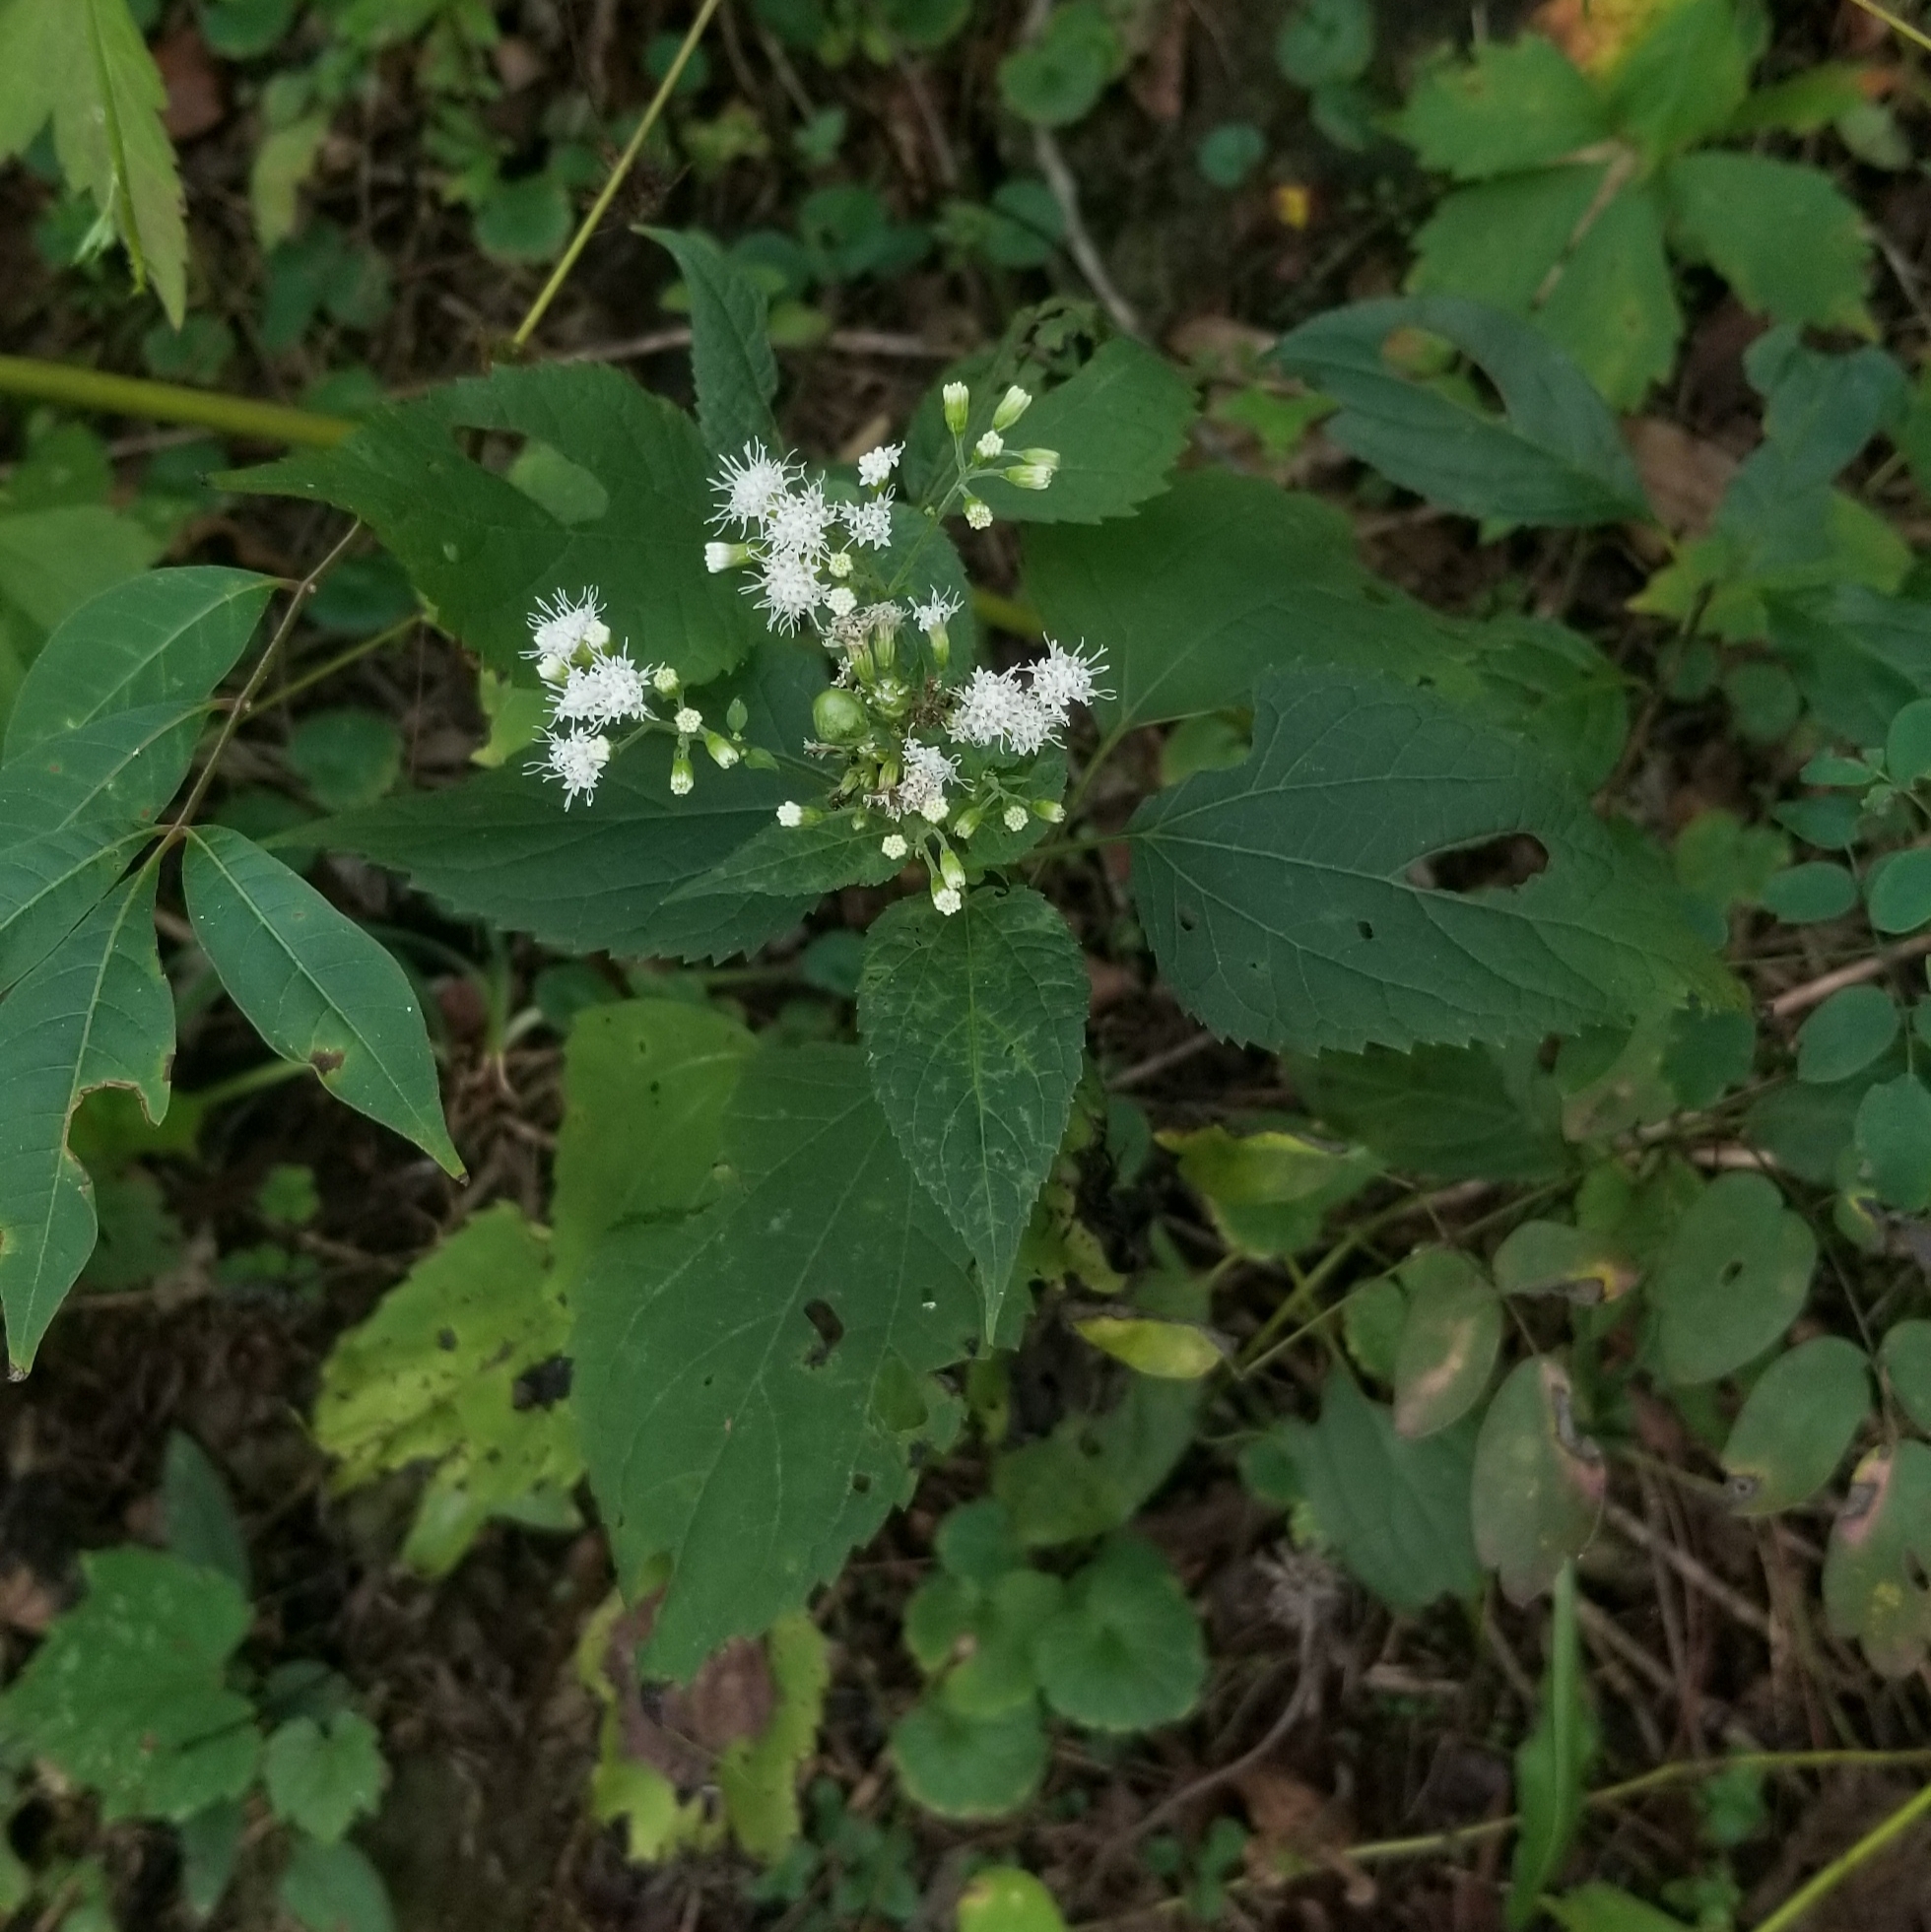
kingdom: Plantae
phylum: Tracheophyta
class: Magnoliopsida
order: Asterales
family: Asteraceae
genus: Ageratina
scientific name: Ageratina altissima
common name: White snakeroot
